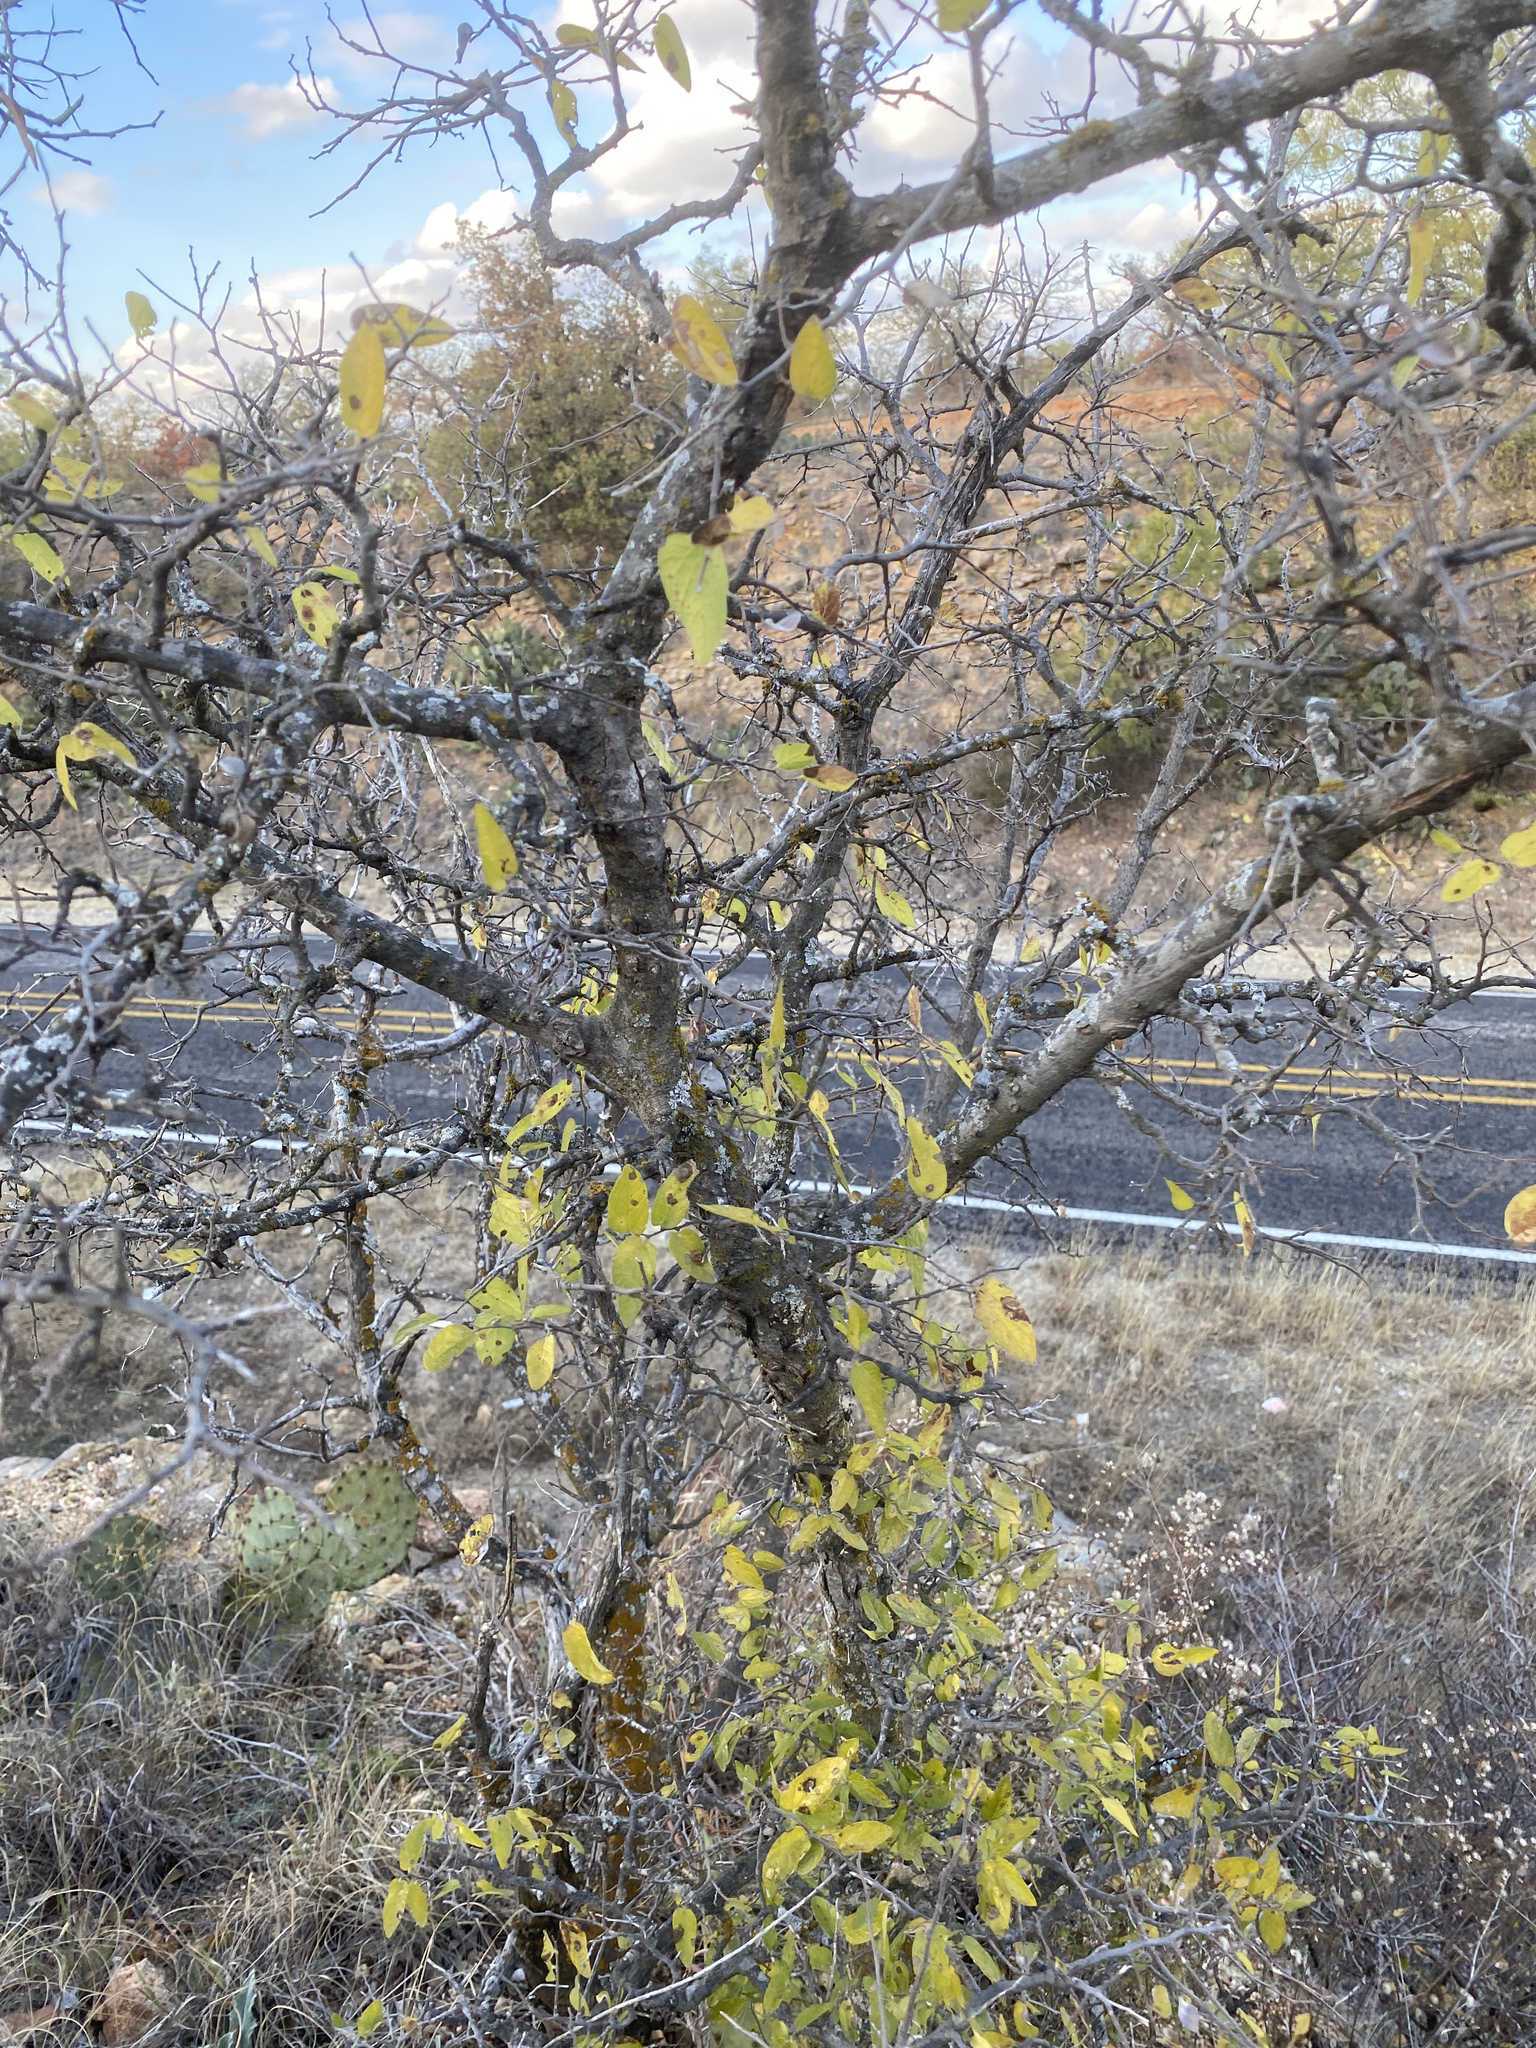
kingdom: Plantae
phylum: Tracheophyta
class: Magnoliopsida
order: Rosales
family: Cannabaceae
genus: Celtis
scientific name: Celtis laevigata
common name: Sugarberry
